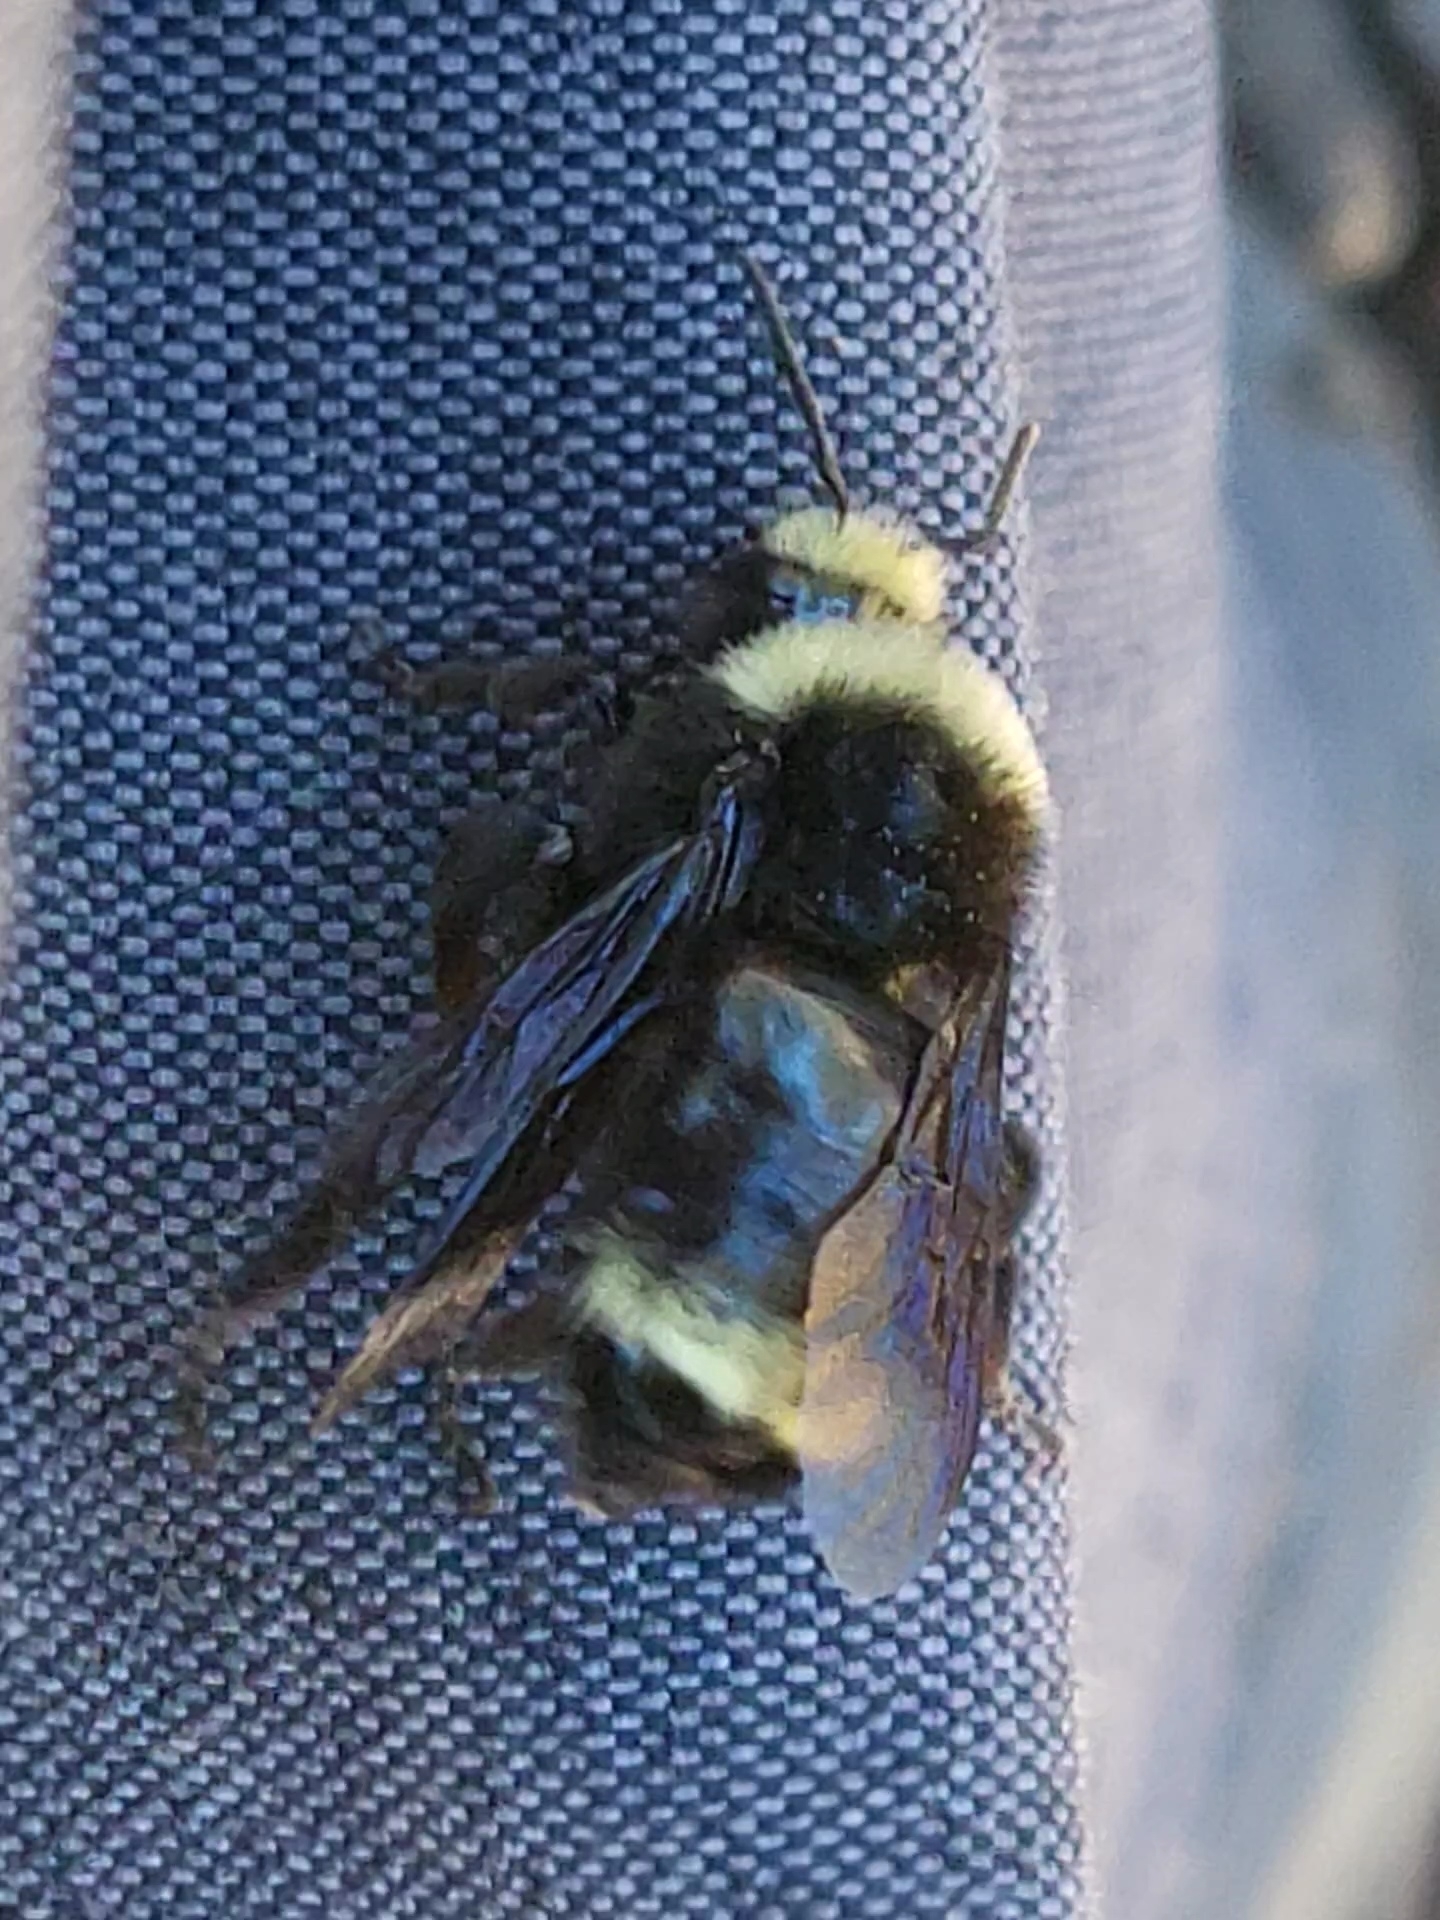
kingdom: Animalia
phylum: Arthropoda
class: Insecta
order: Hymenoptera
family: Apidae
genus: Bombus
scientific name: Bombus vosnesenskii
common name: Vosnesensky bumble bee
